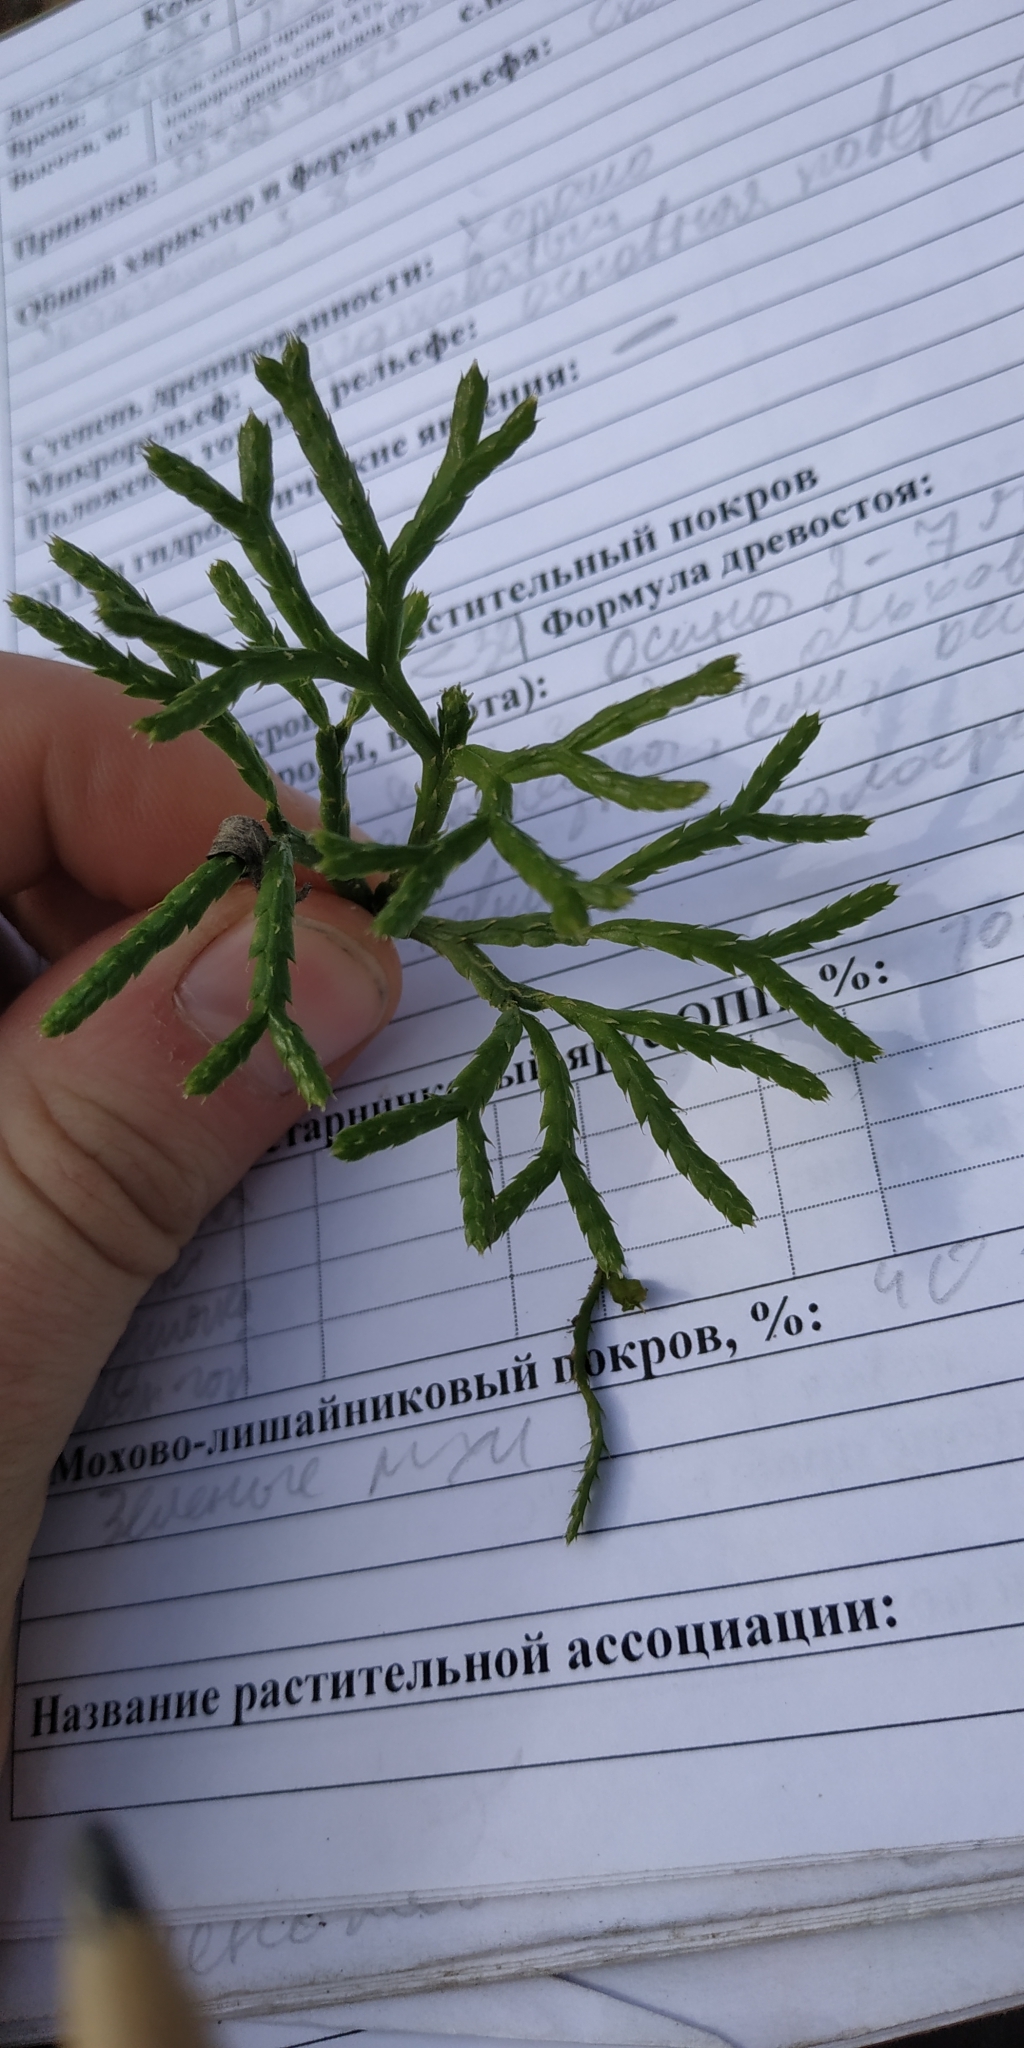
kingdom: Plantae
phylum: Tracheophyta
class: Lycopodiopsida
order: Lycopodiales
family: Lycopodiaceae
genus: Diphasiastrum
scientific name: Diphasiastrum complanatum
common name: Northern running-pine
